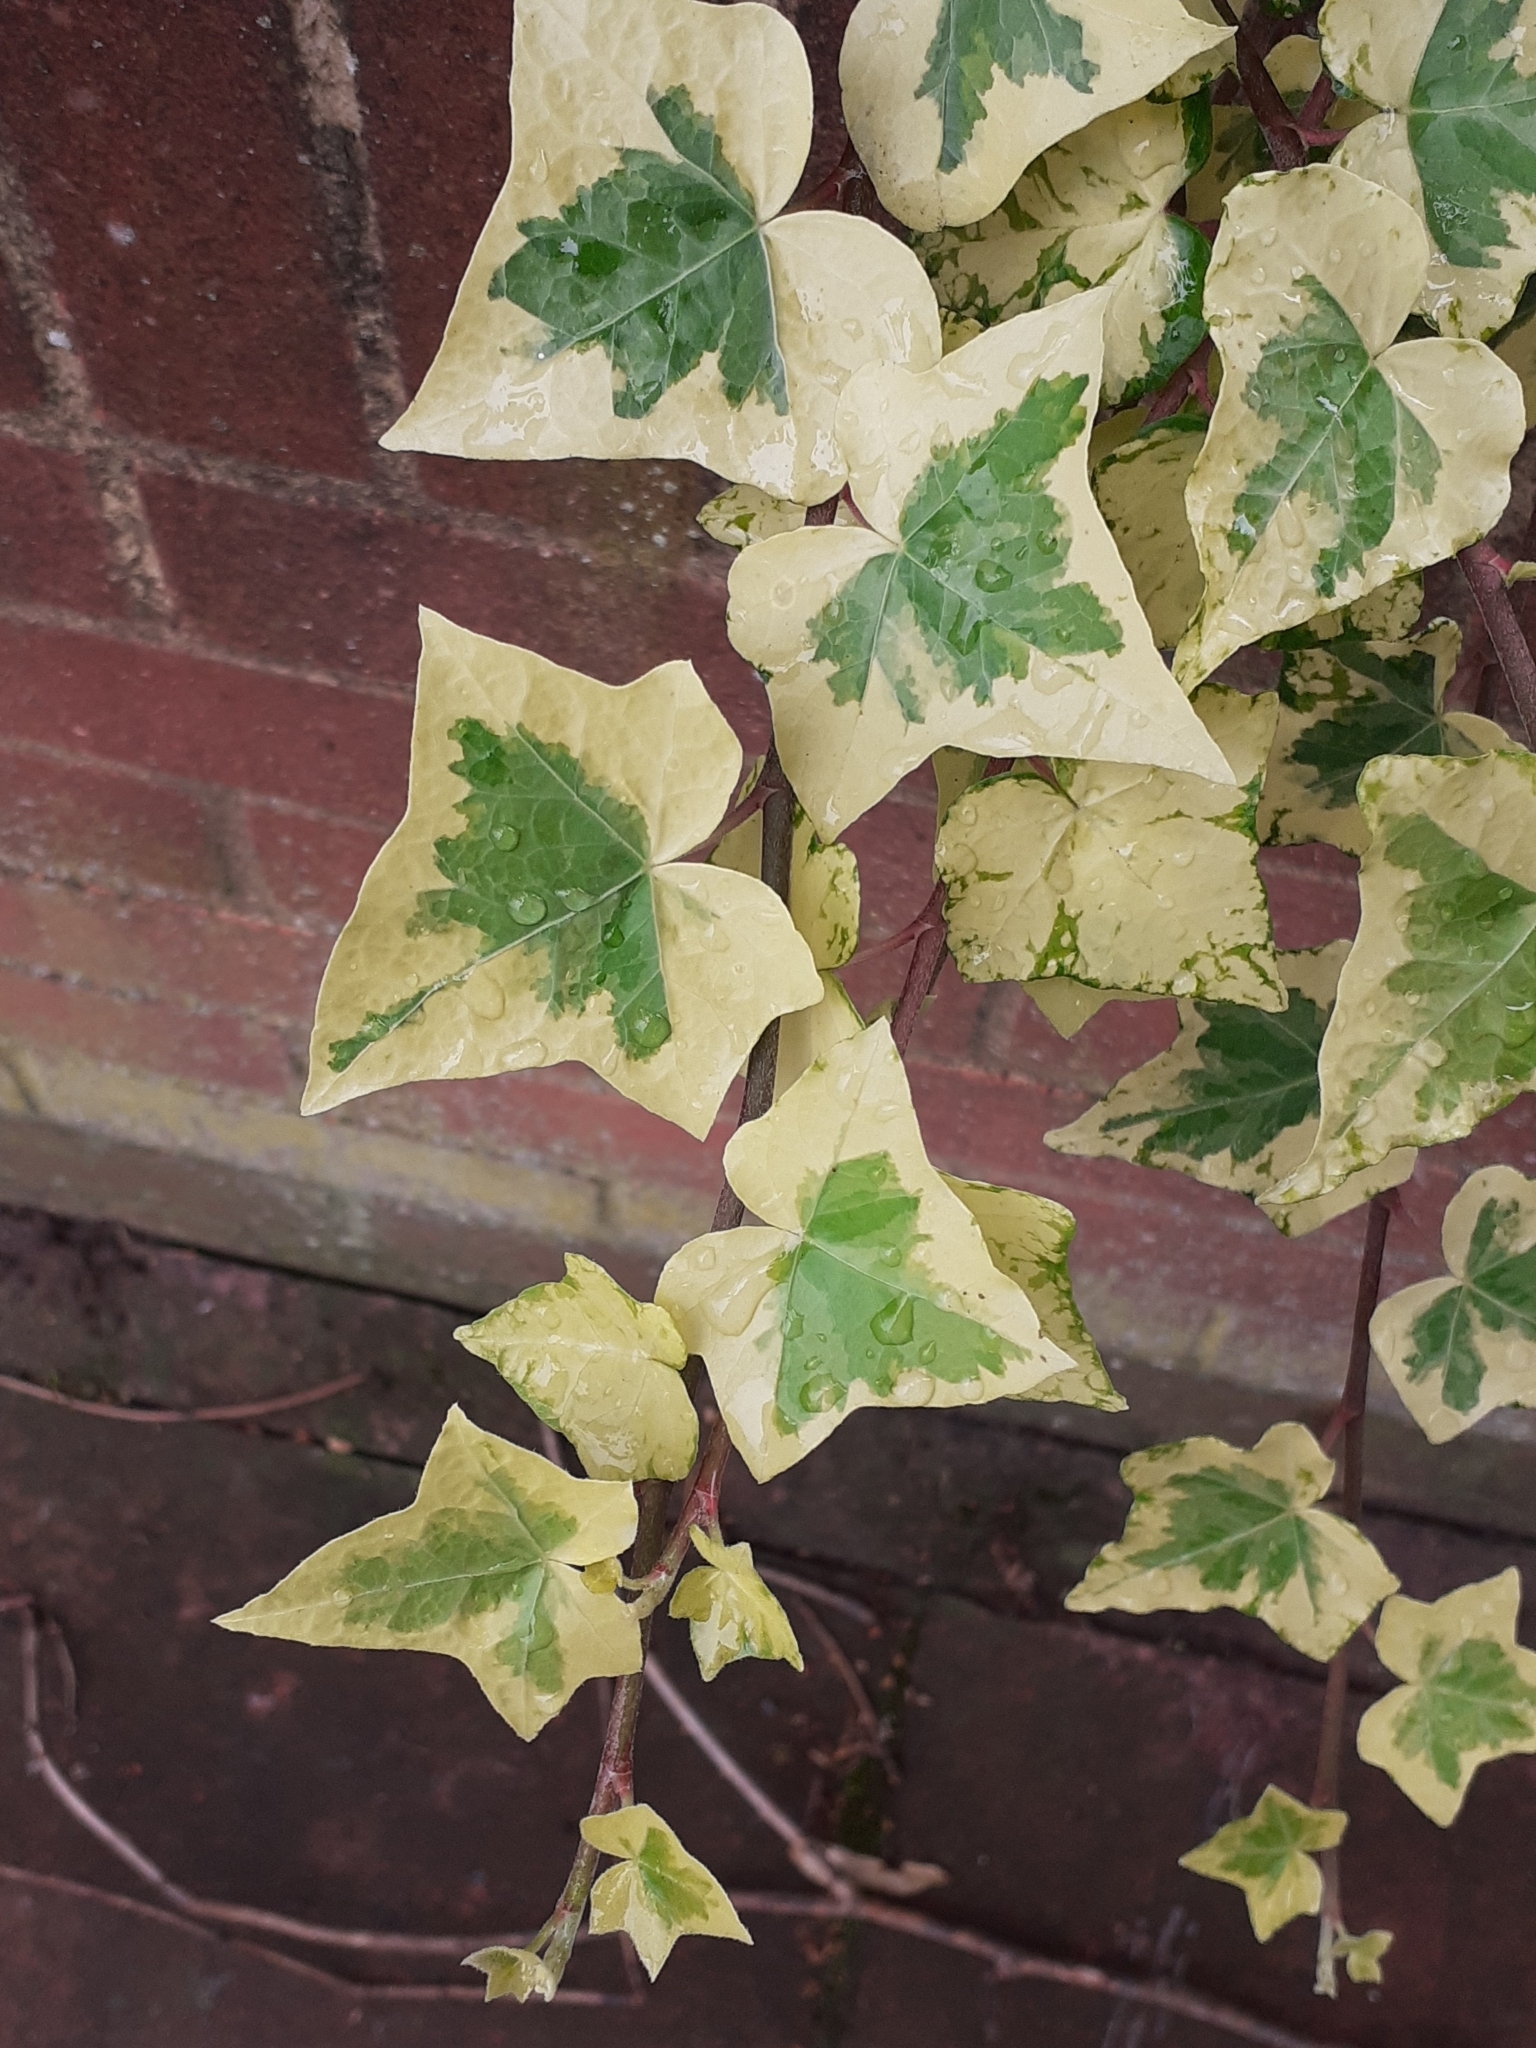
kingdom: Plantae
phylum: Tracheophyta
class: Magnoliopsida
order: Apiales
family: Araliaceae
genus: Hedera
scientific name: Hedera helix
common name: Ivy
